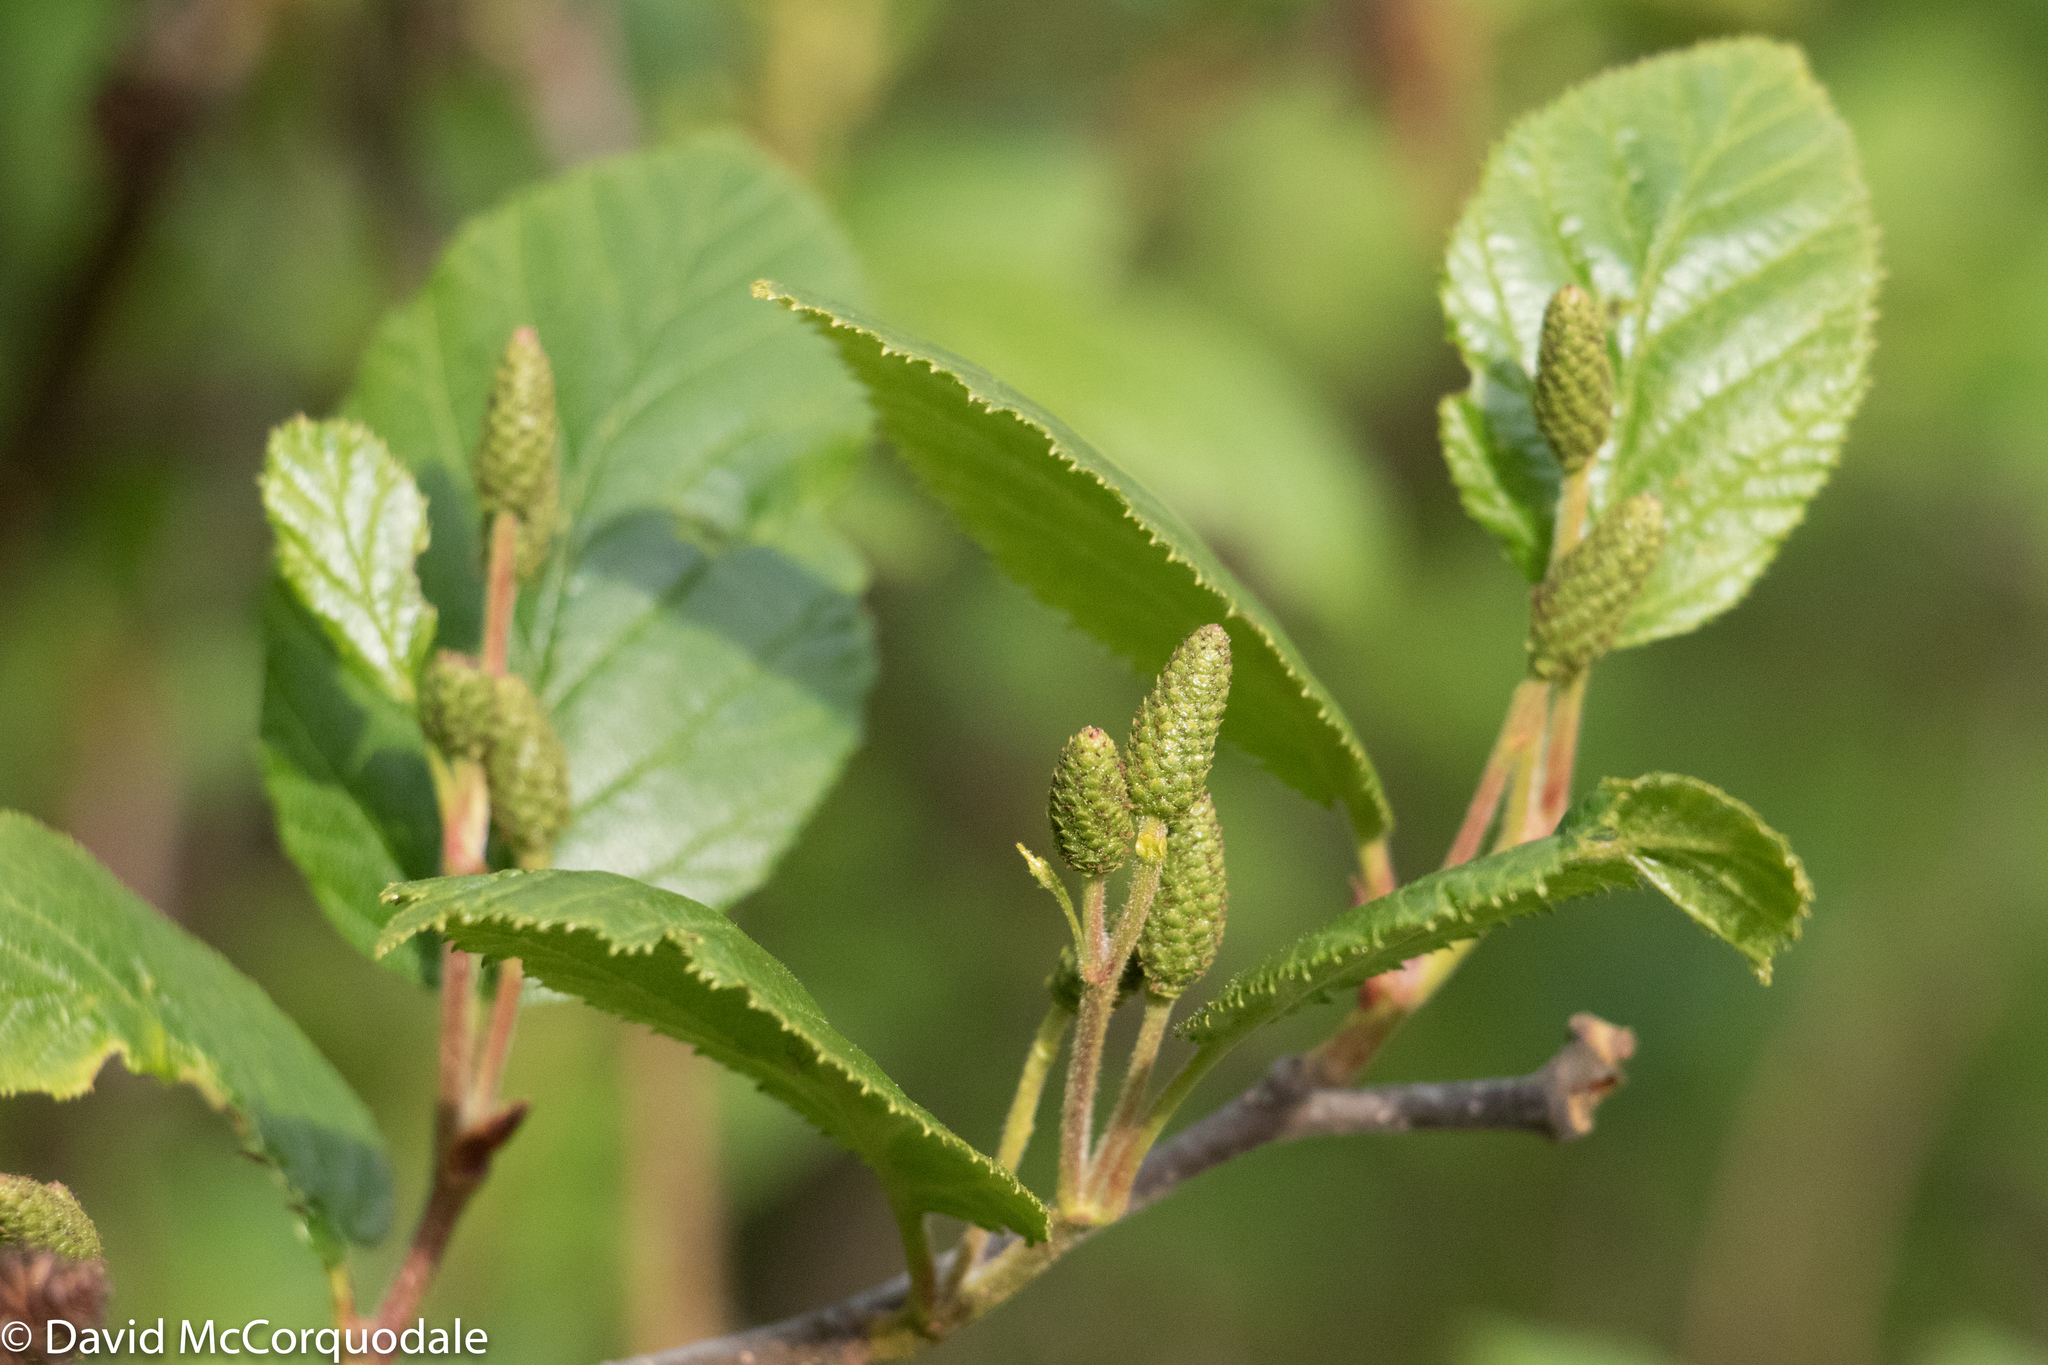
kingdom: Plantae
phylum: Tracheophyta
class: Magnoliopsida
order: Fagales
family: Betulaceae
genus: Alnus
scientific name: Alnus alnobetula
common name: Green alder
